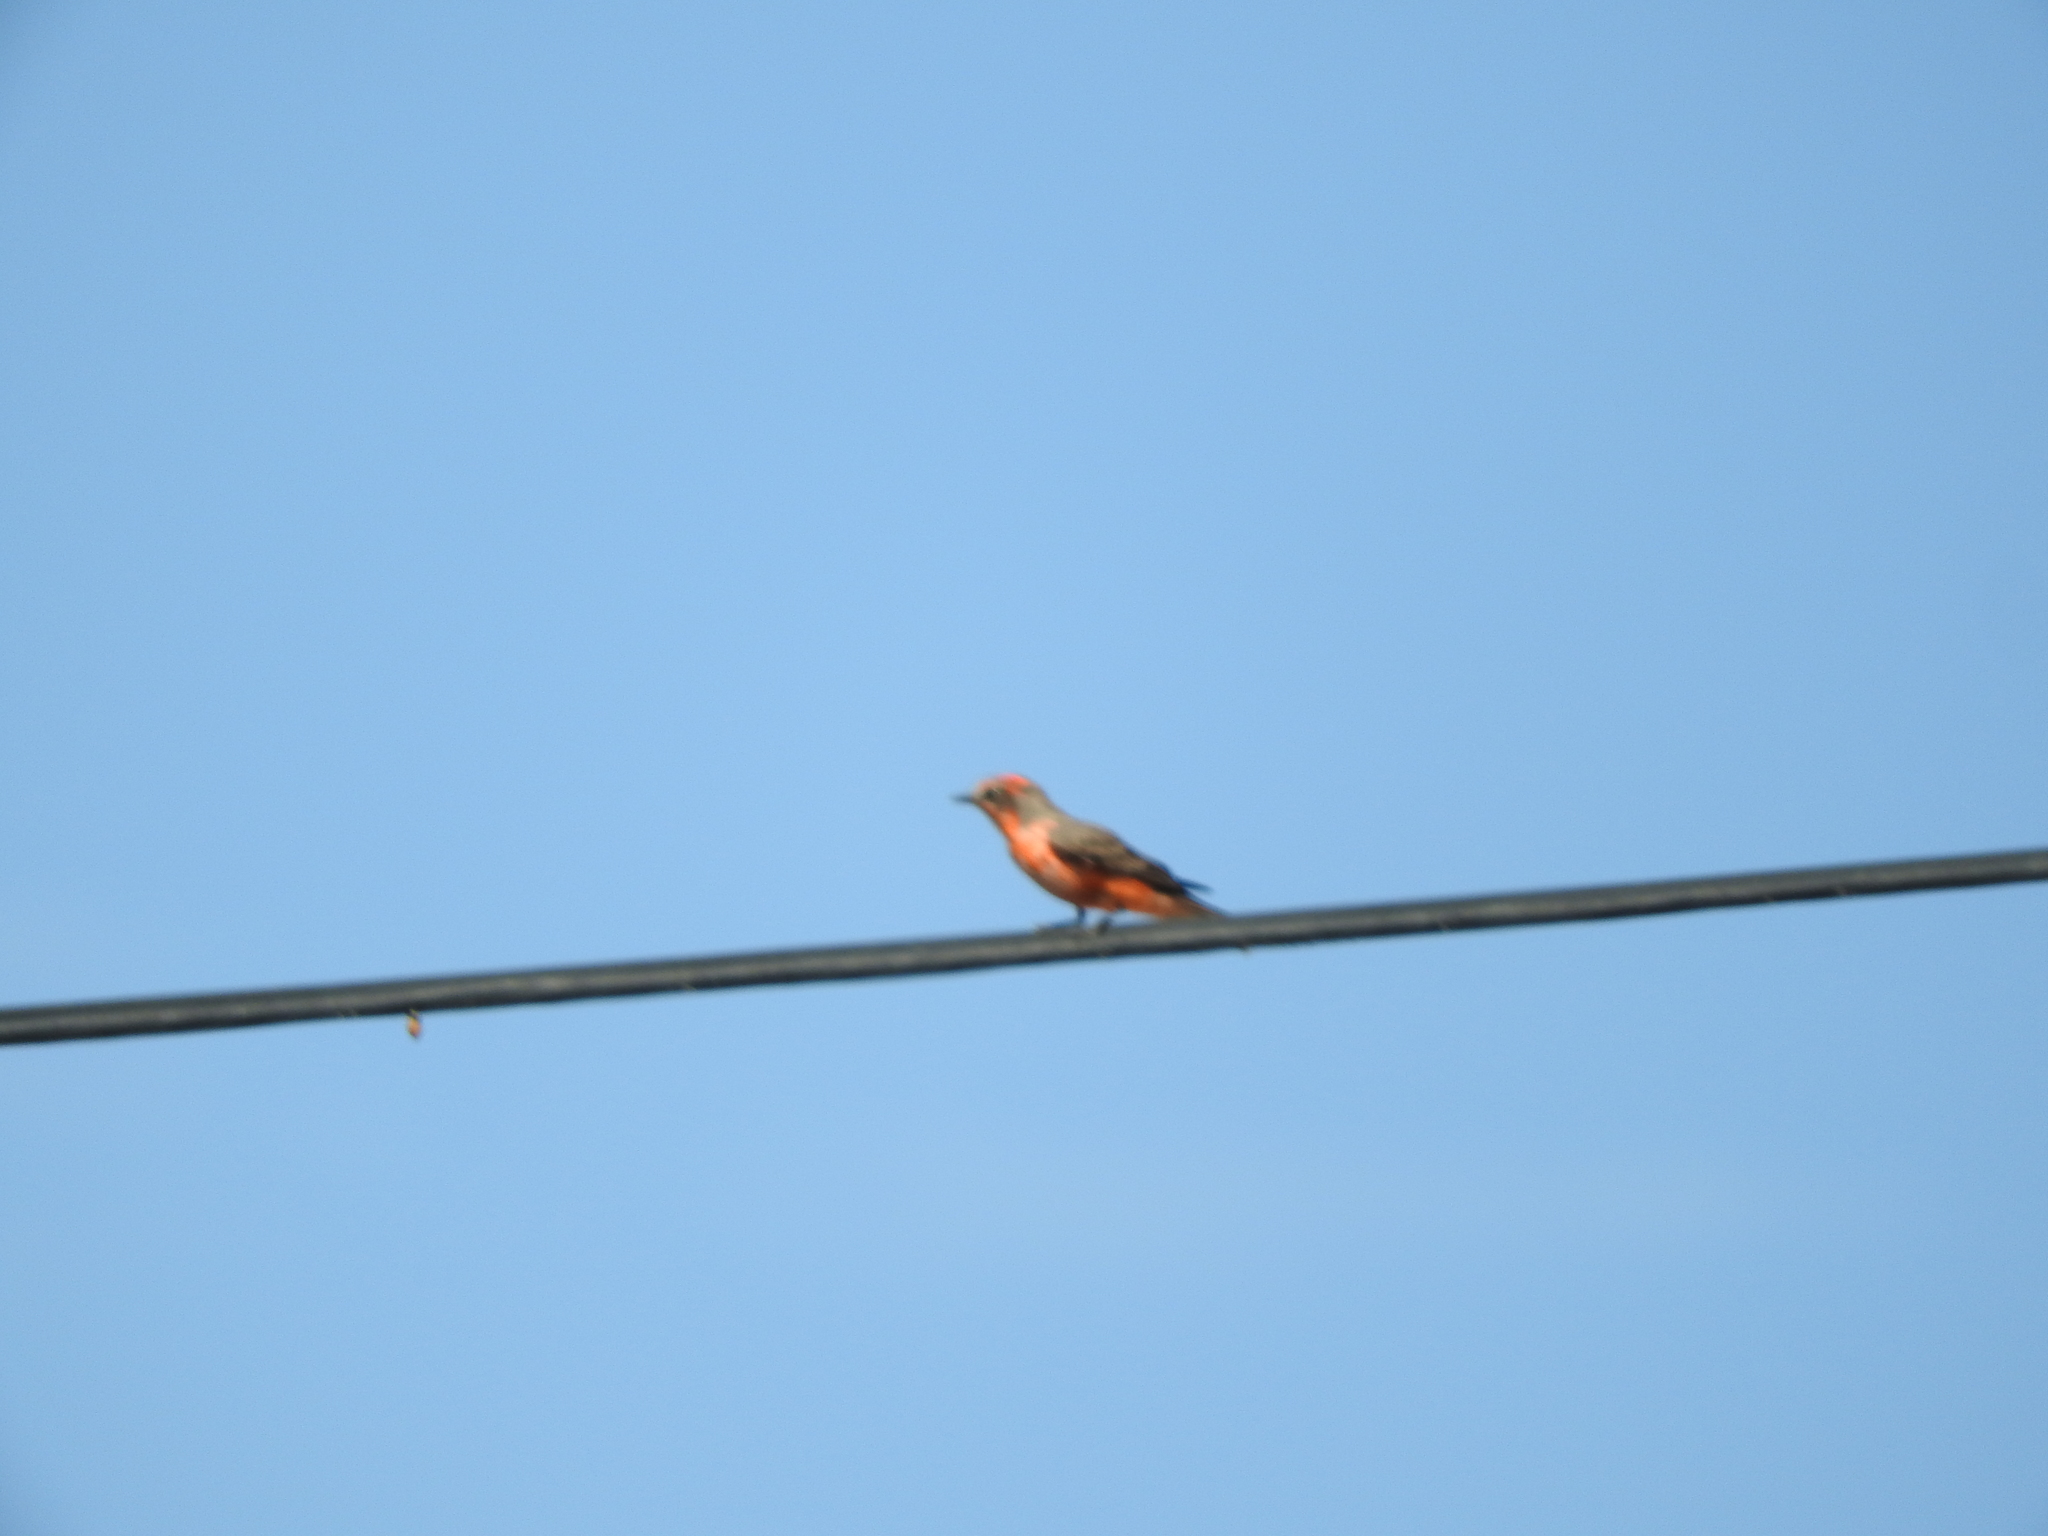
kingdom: Animalia
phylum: Chordata
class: Aves
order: Passeriformes
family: Tyrannidae
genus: Pyrocephalus
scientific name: Pyrocephalus rubinus
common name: Vermilion flycatcher
